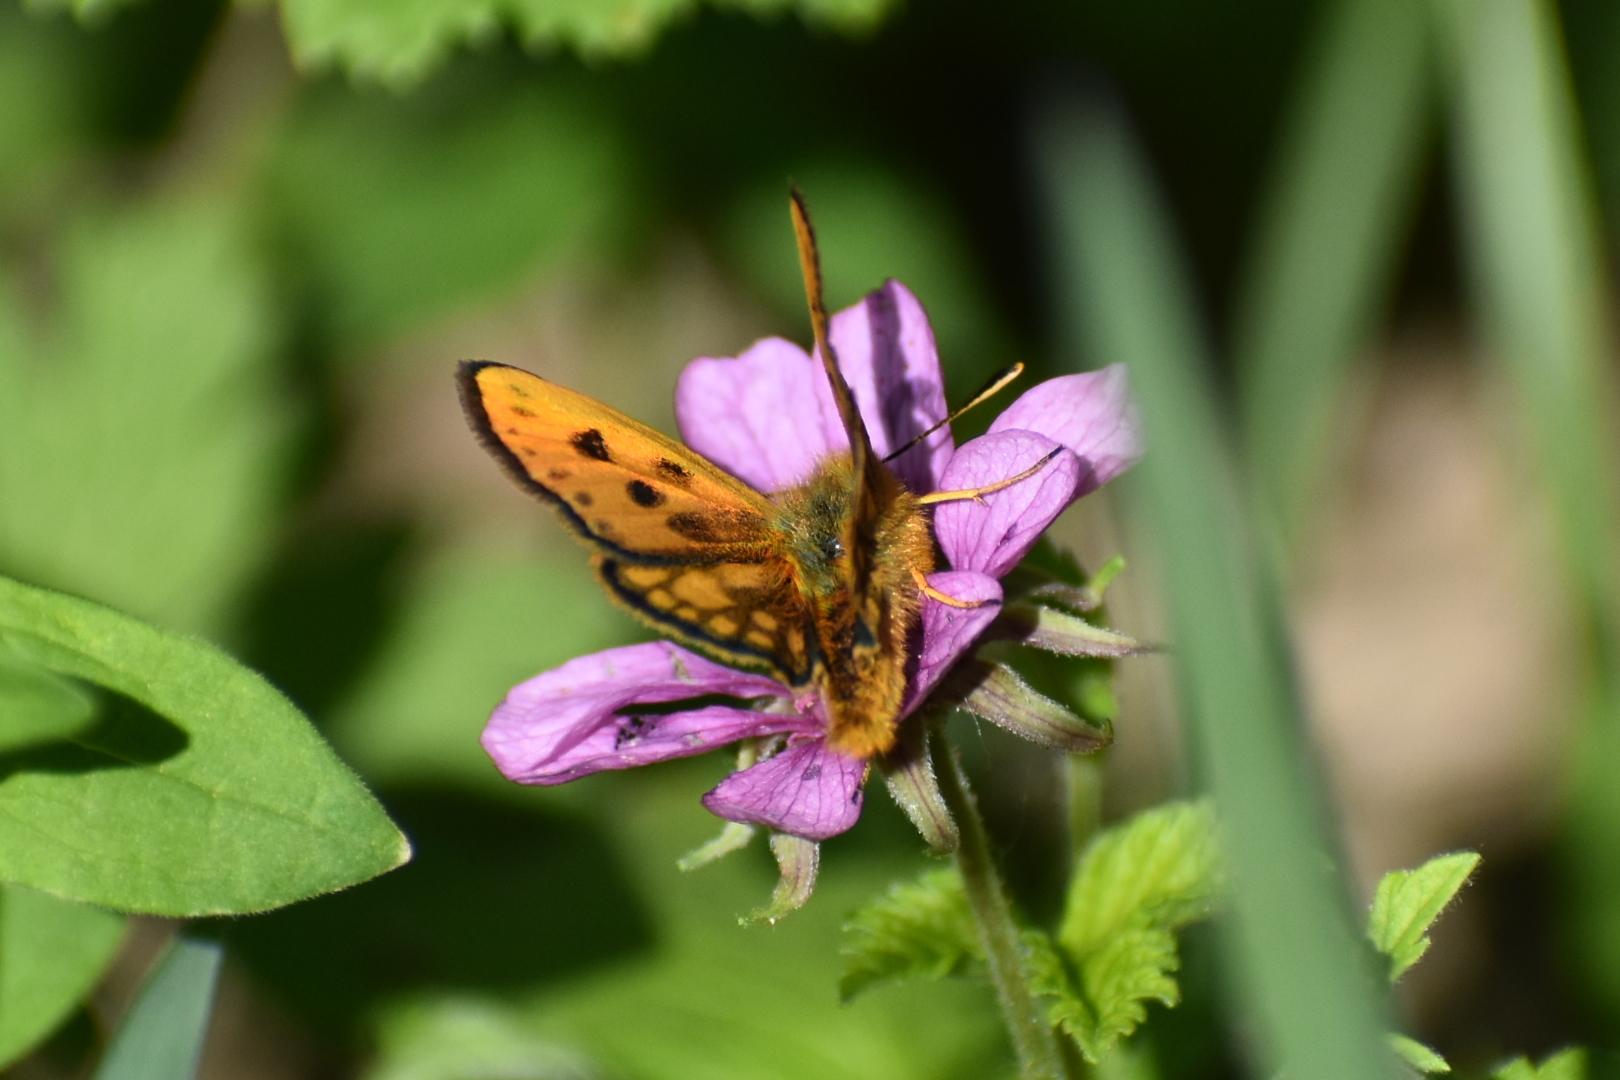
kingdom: Animalia
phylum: Arthropoda
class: Insecta
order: Lepidoptera
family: Hesperiidae
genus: Carterocephalus
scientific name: Carterocephalus silvicola
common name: Northern chequered skipper
